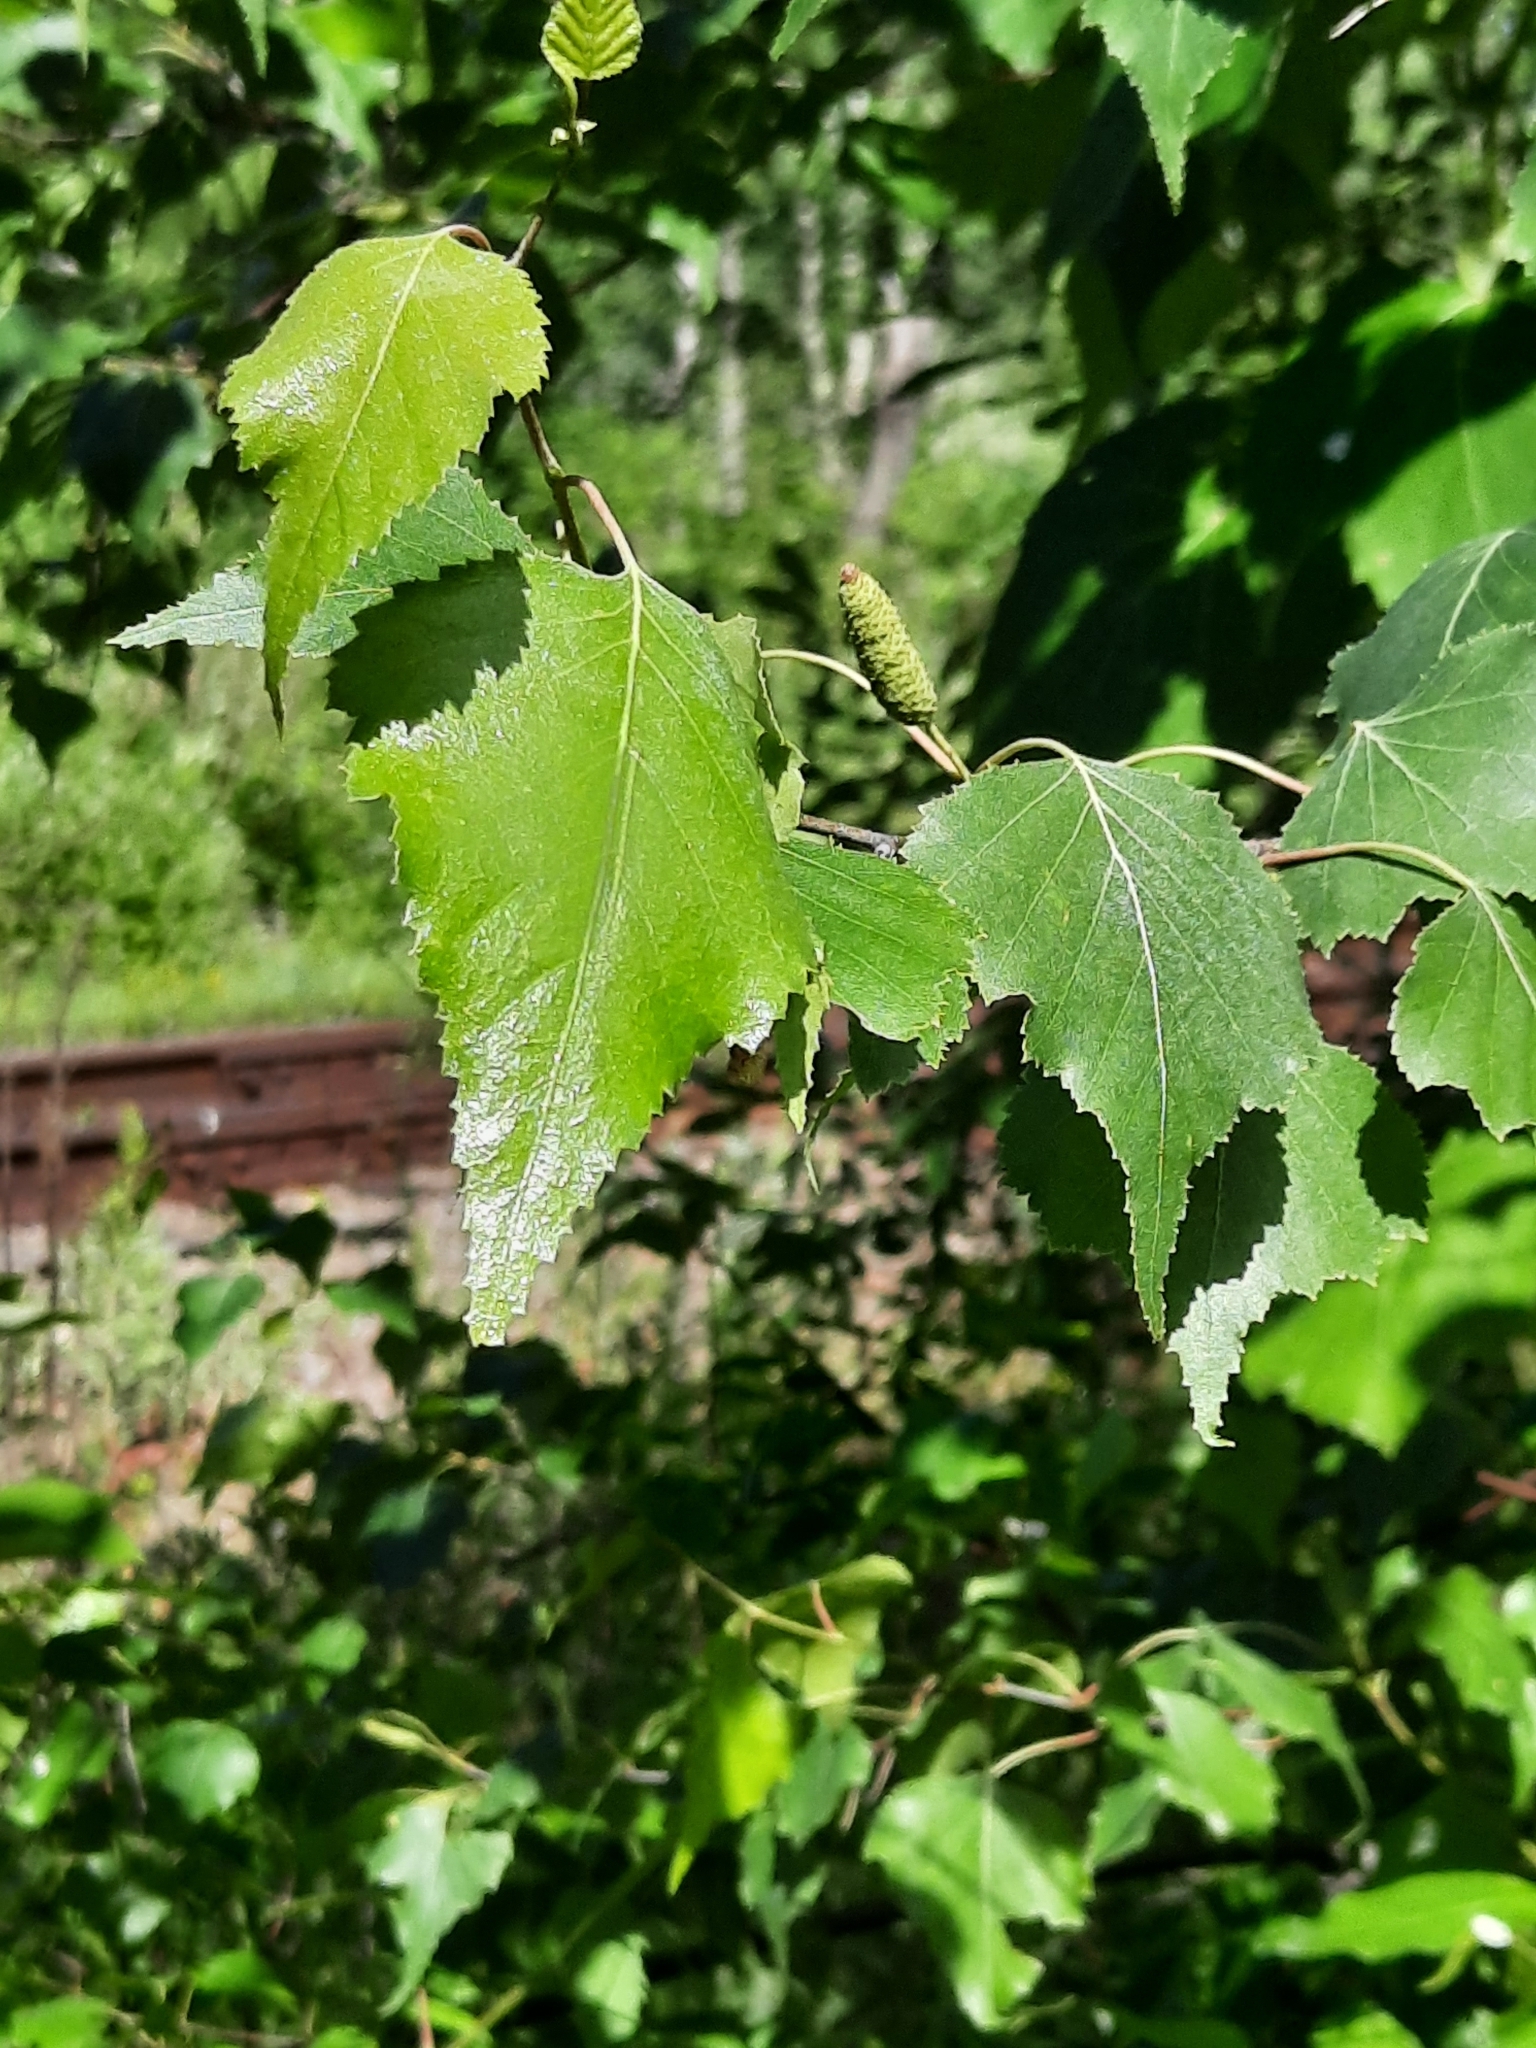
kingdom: Plantae
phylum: Tracheophyta
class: Magnoliopsida
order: Fagales
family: Betulaceae
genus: Betula
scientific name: Betula populifolia
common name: Fire birch
